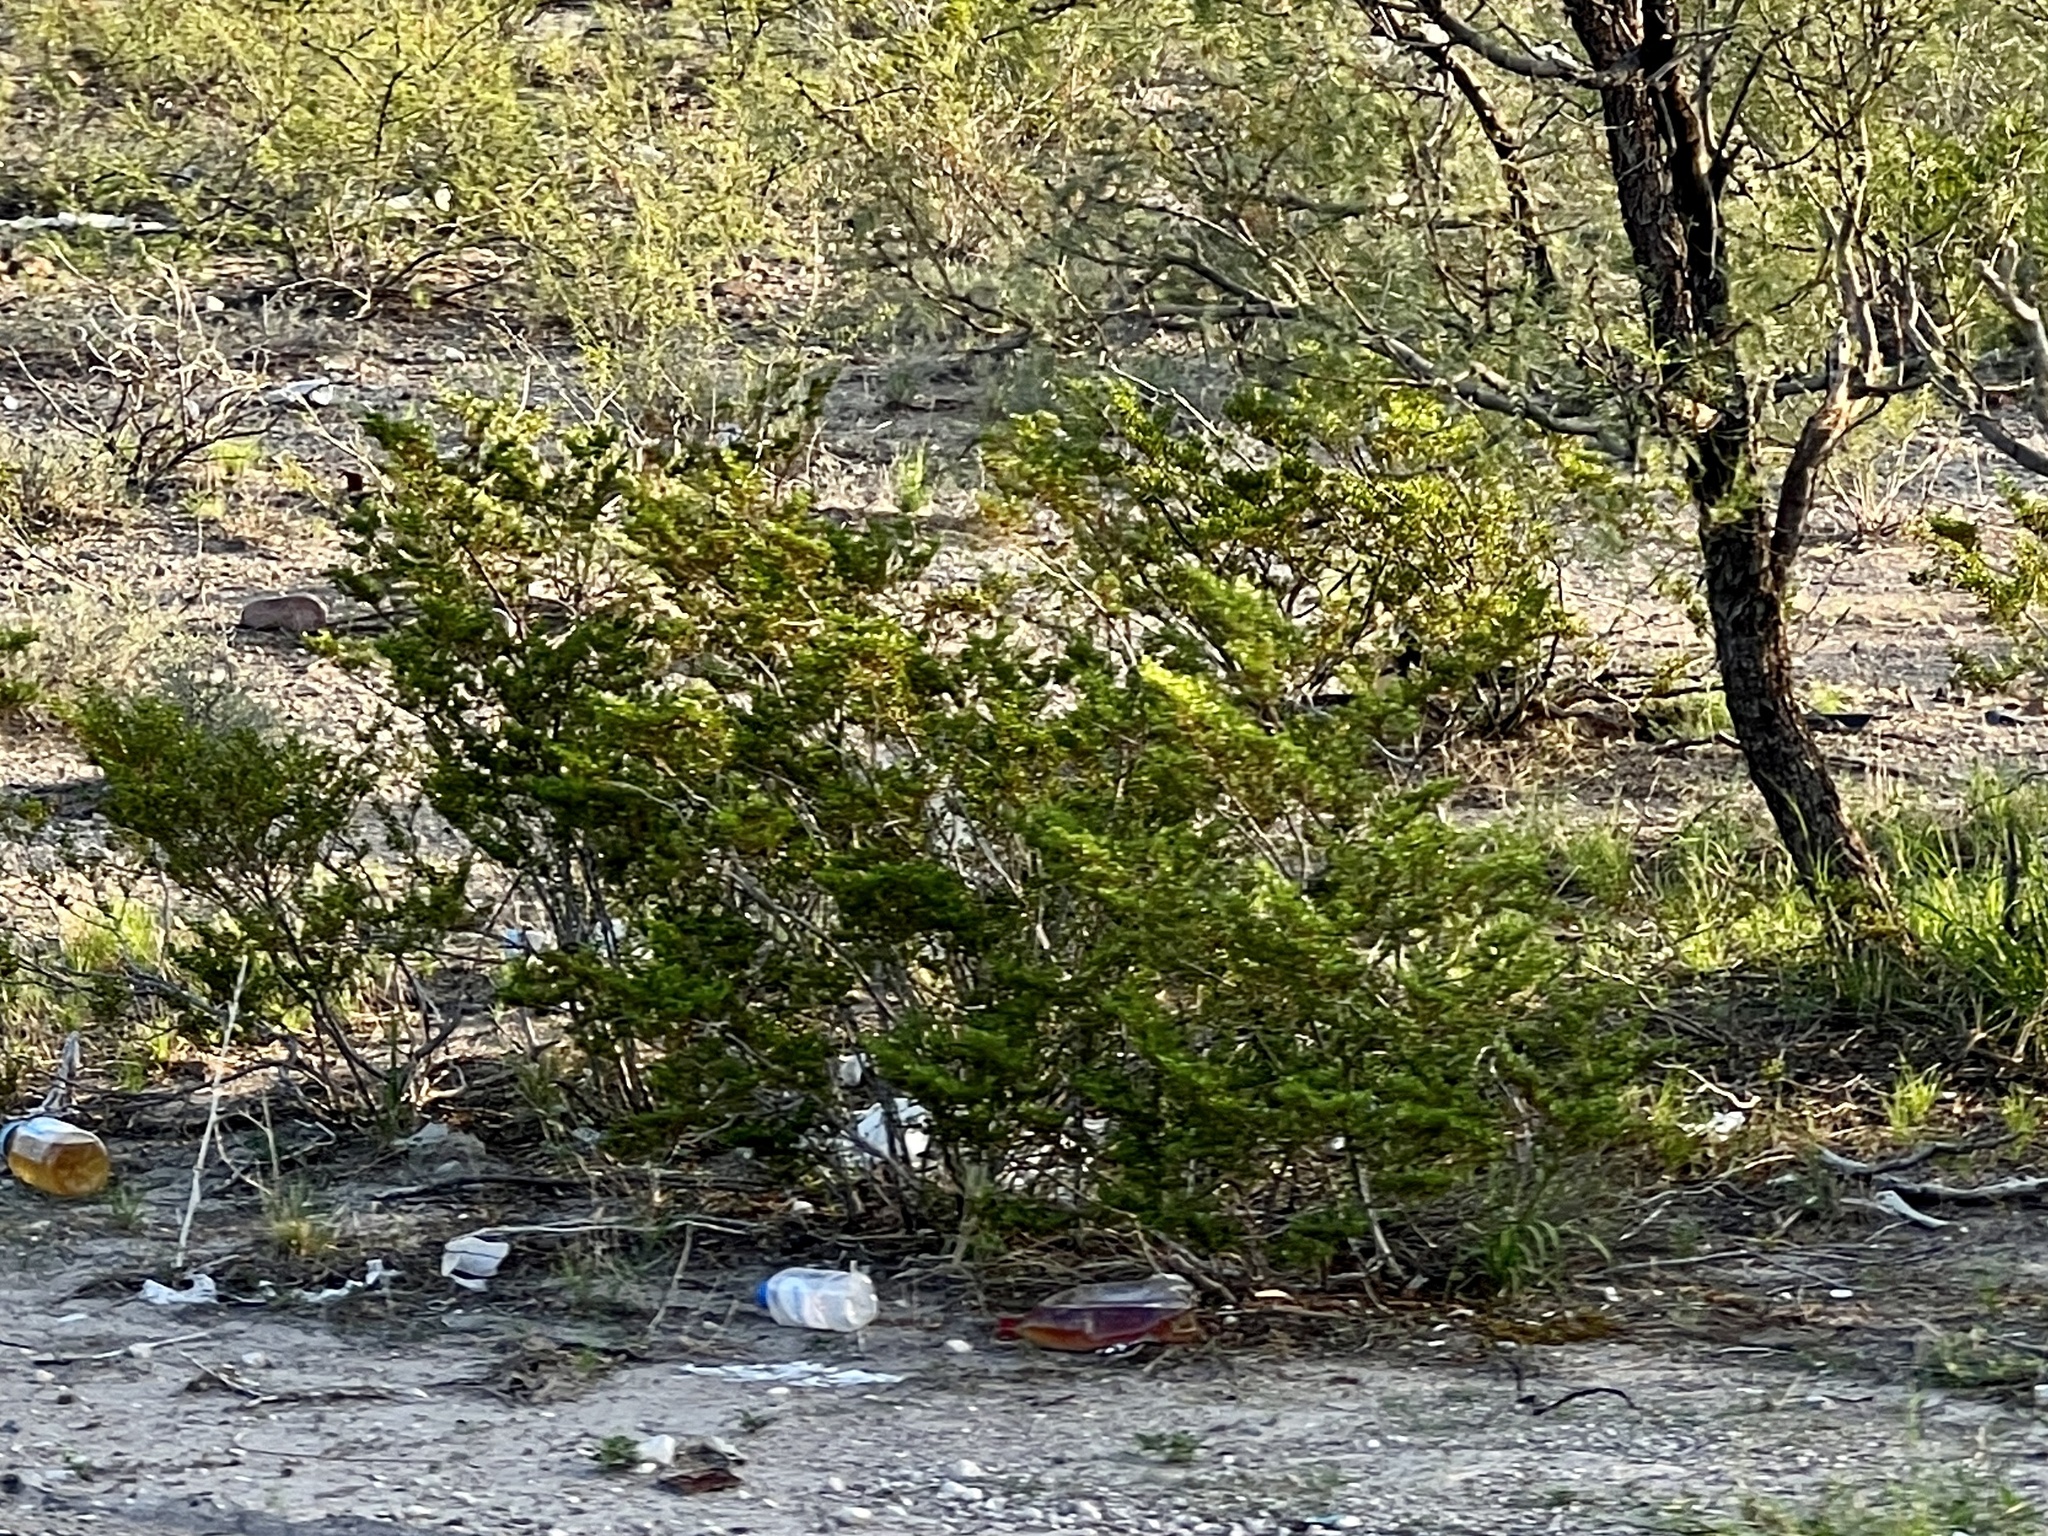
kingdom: Plantae
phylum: Tracheophyta
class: Magnoliopsida
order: Zygophyllales
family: Zygophyllaceae
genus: Larrea
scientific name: Larrea tridentata
